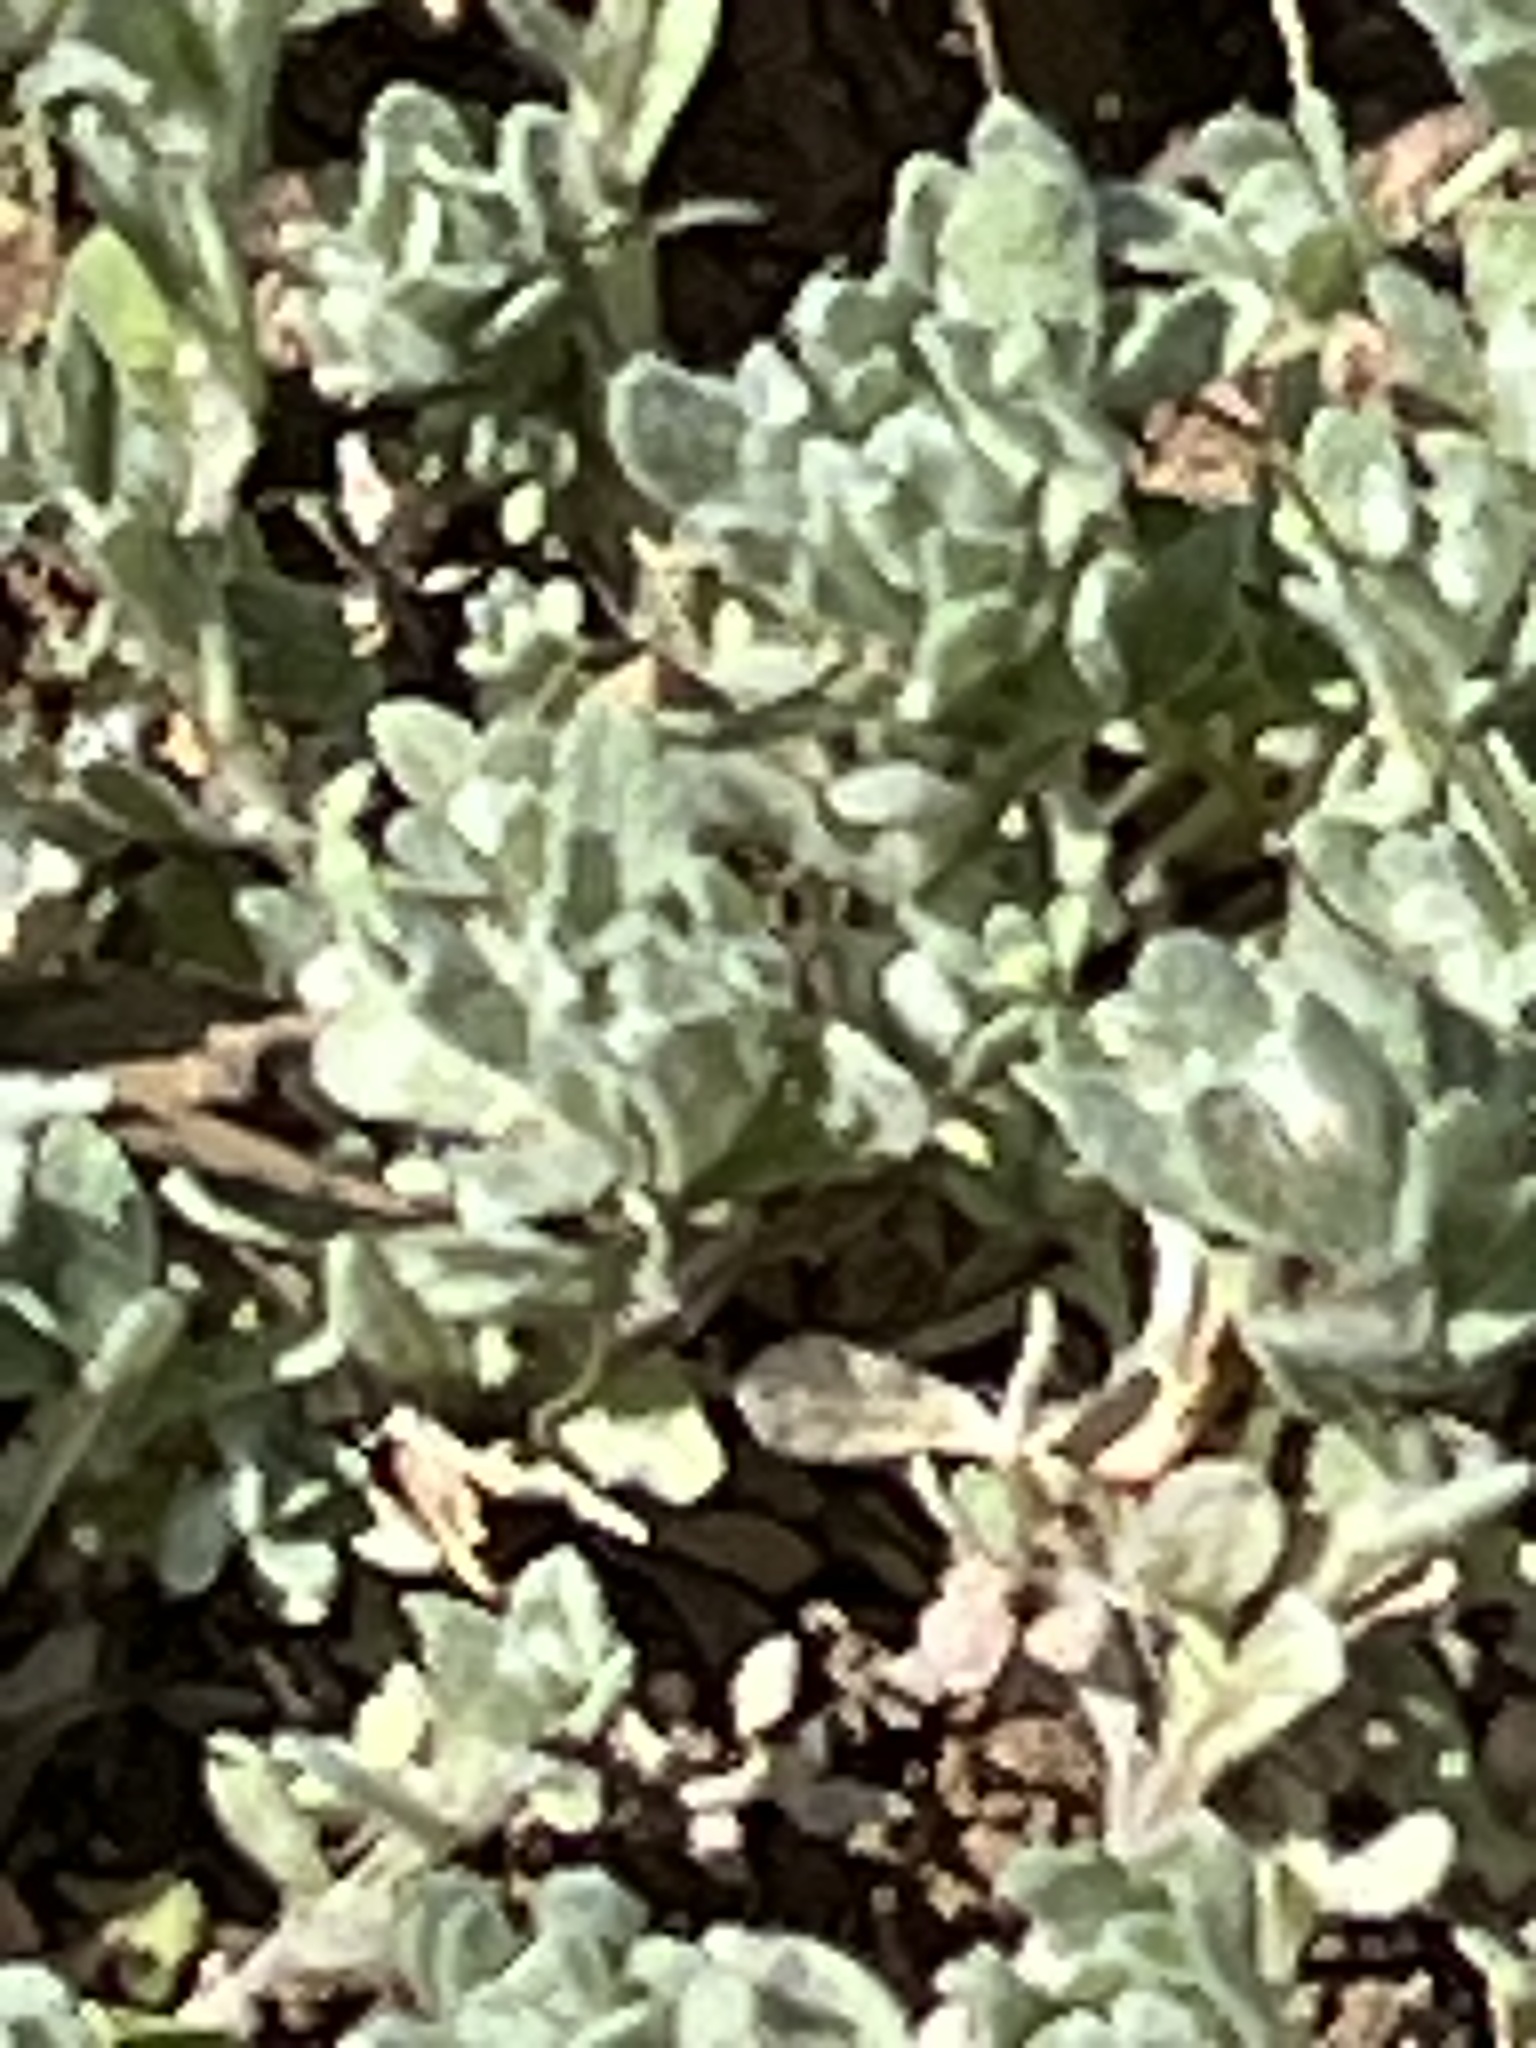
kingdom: Plantae
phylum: Tracheophyta
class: Magnoliopsida
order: Asterales
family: Asteraceae
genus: Diaperia
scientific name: Diaperia prolifera
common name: Big-head rabbit-tobacco
